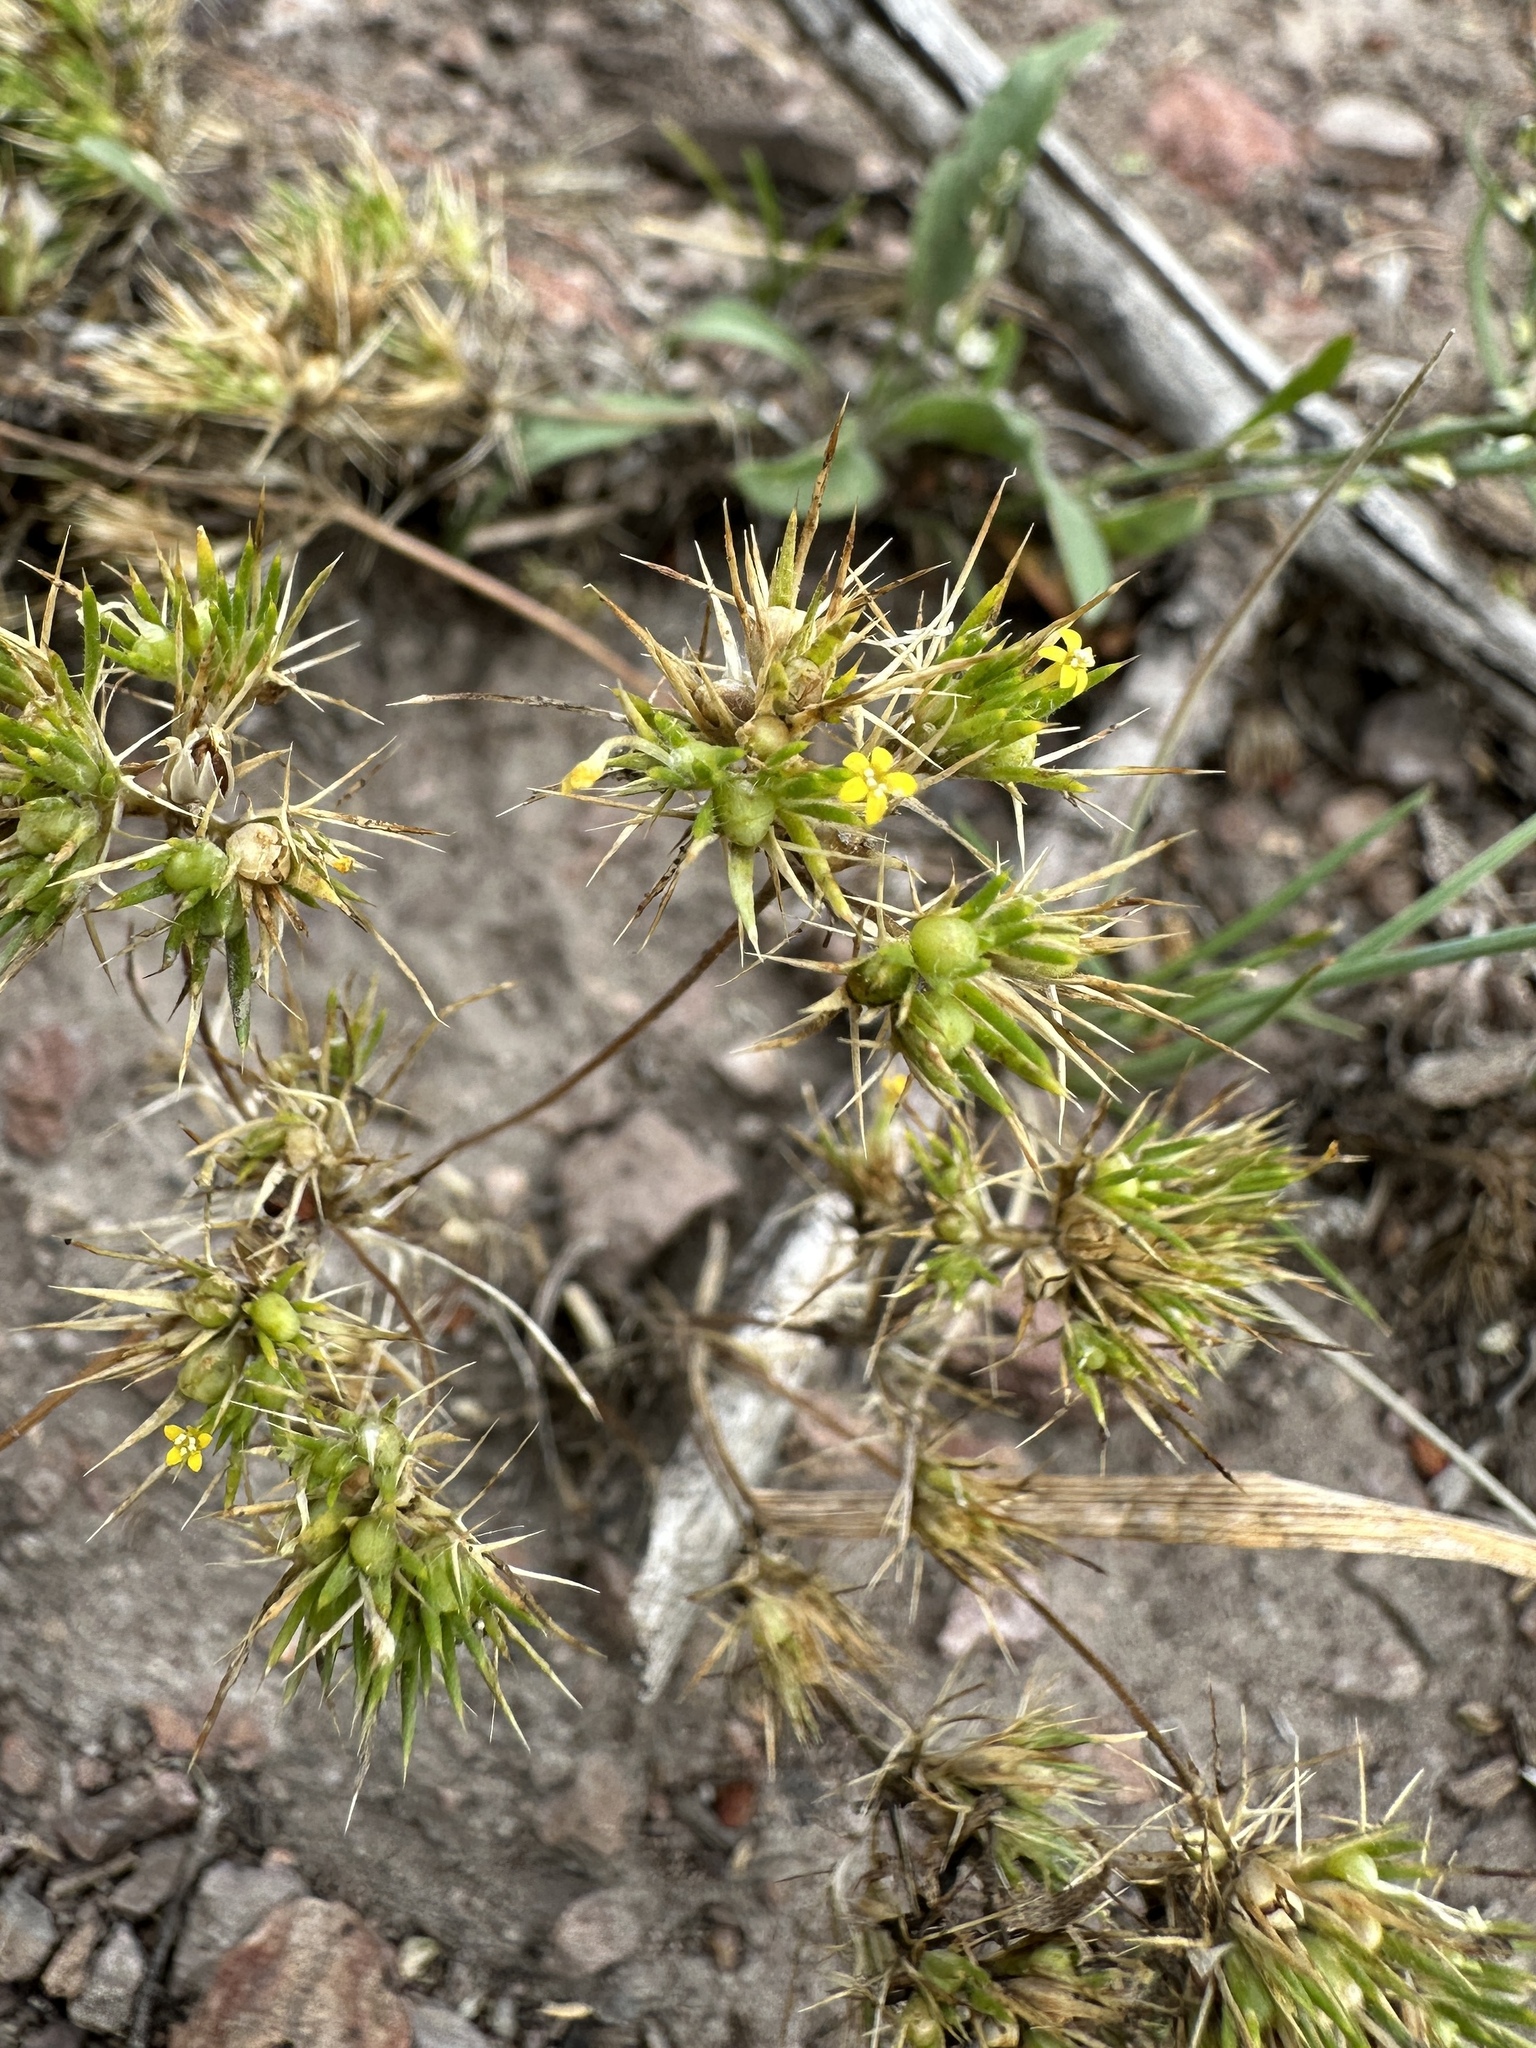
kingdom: Plantae
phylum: Tracheophyta
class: Magnoliopsida
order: Ericales
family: Polemoniaceae
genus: Navarretia
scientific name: Navarretia breweri
